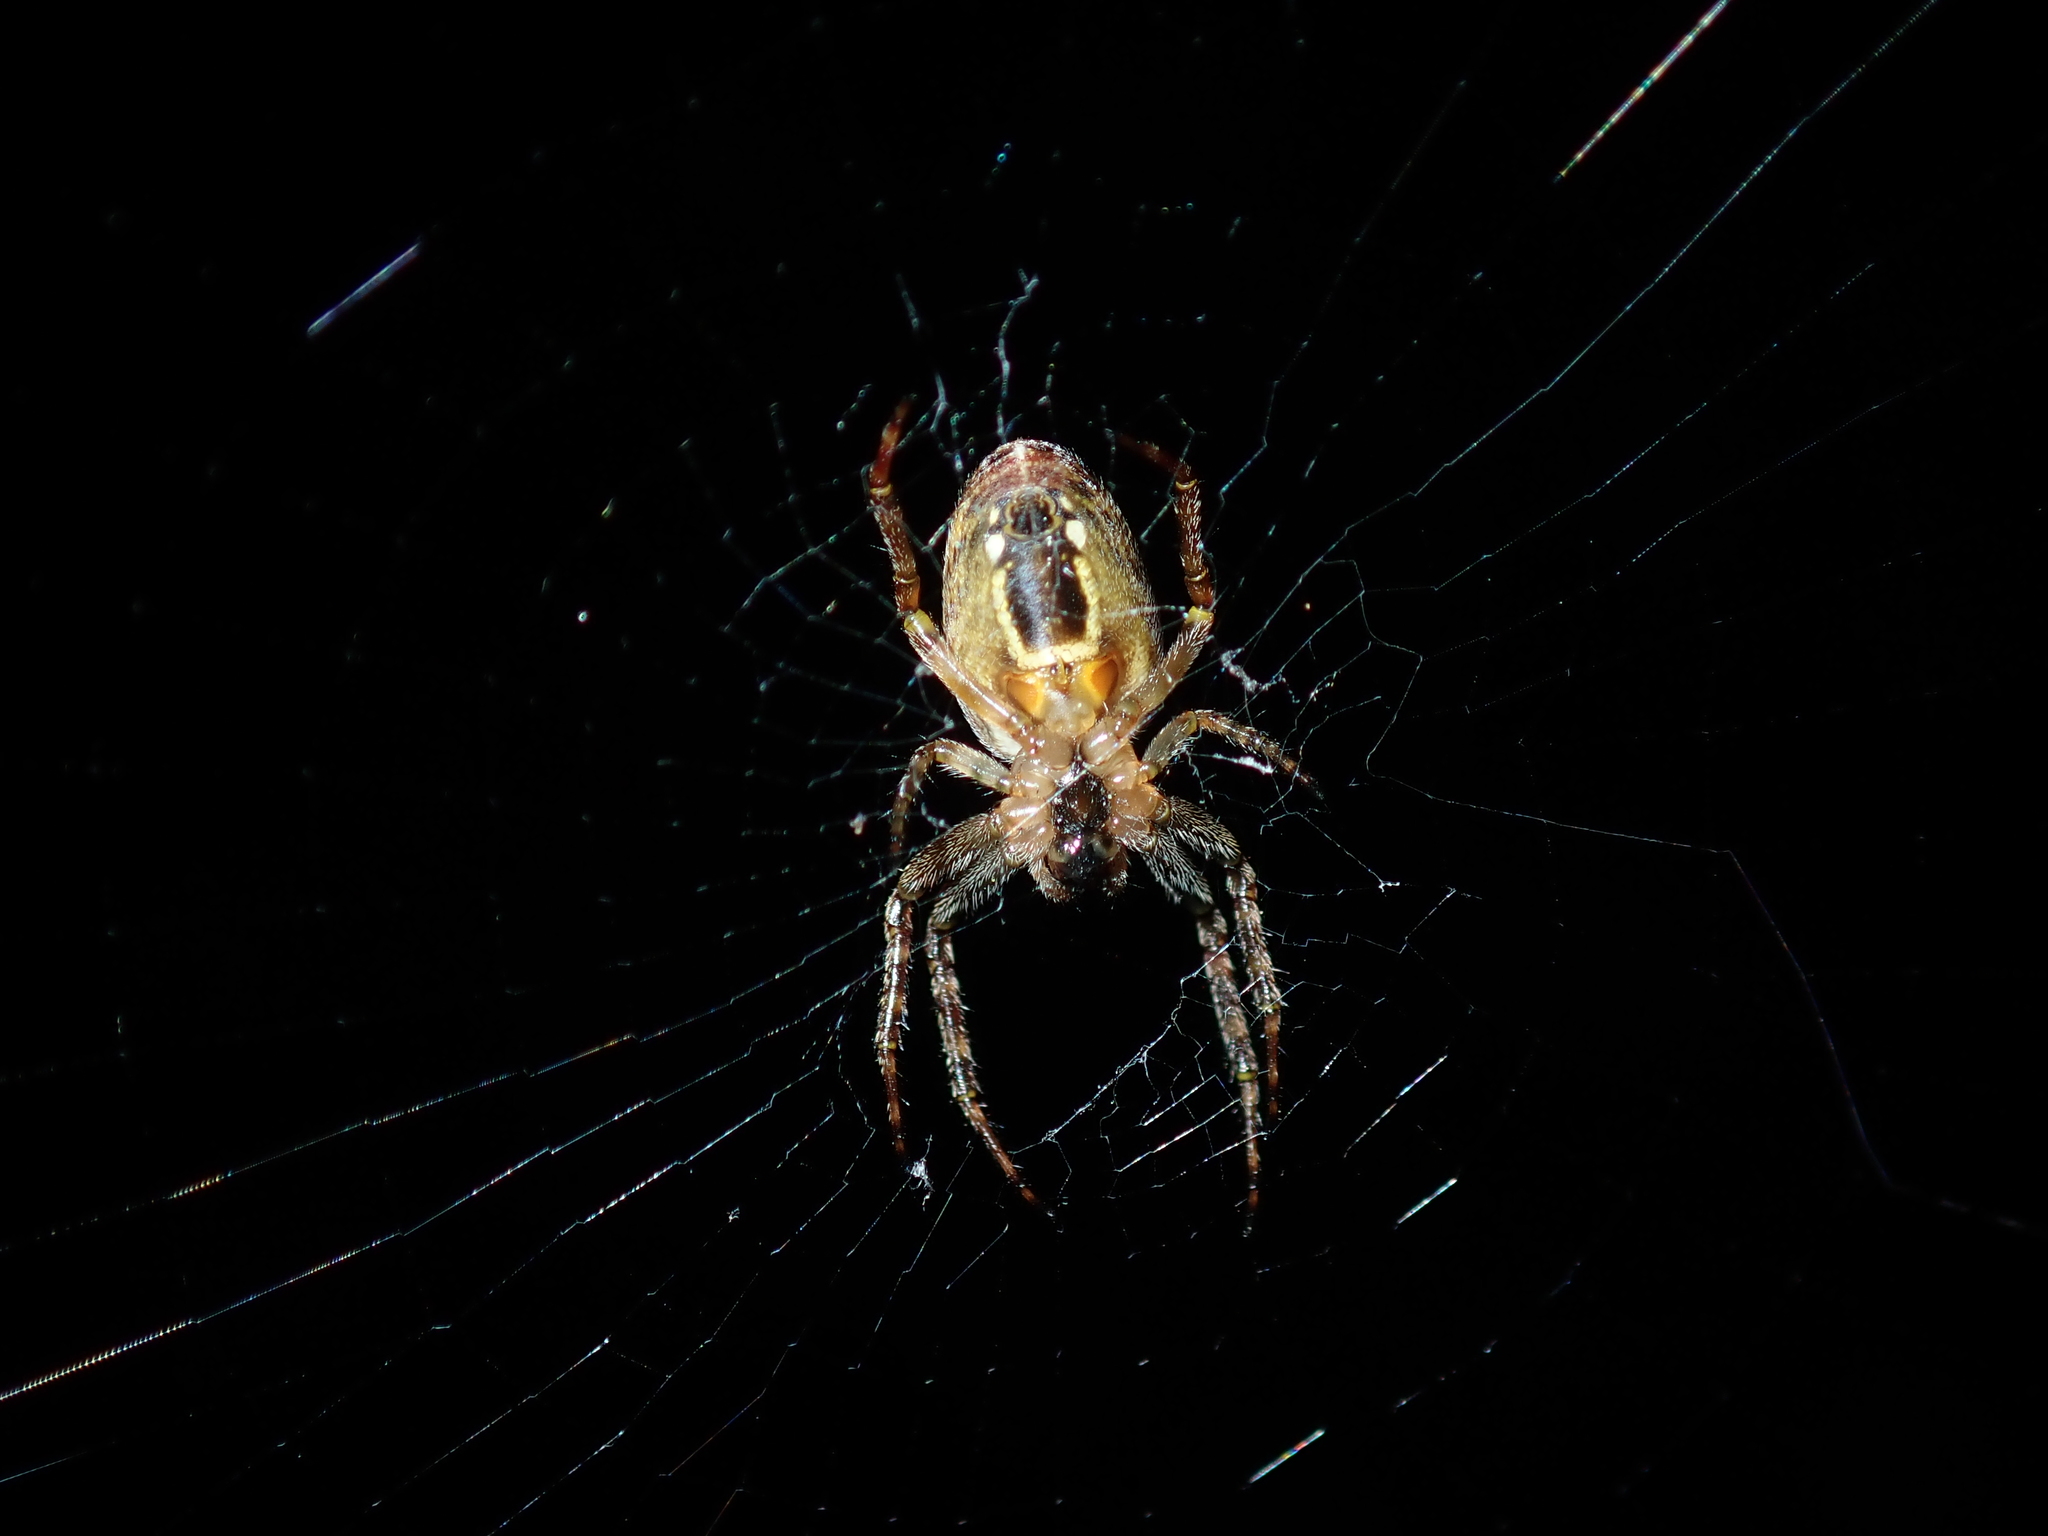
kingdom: Animalia
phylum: Arthropoda
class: Arachnida
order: Araneae
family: Araneidae
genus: Plebs
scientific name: Plebs eburnus
